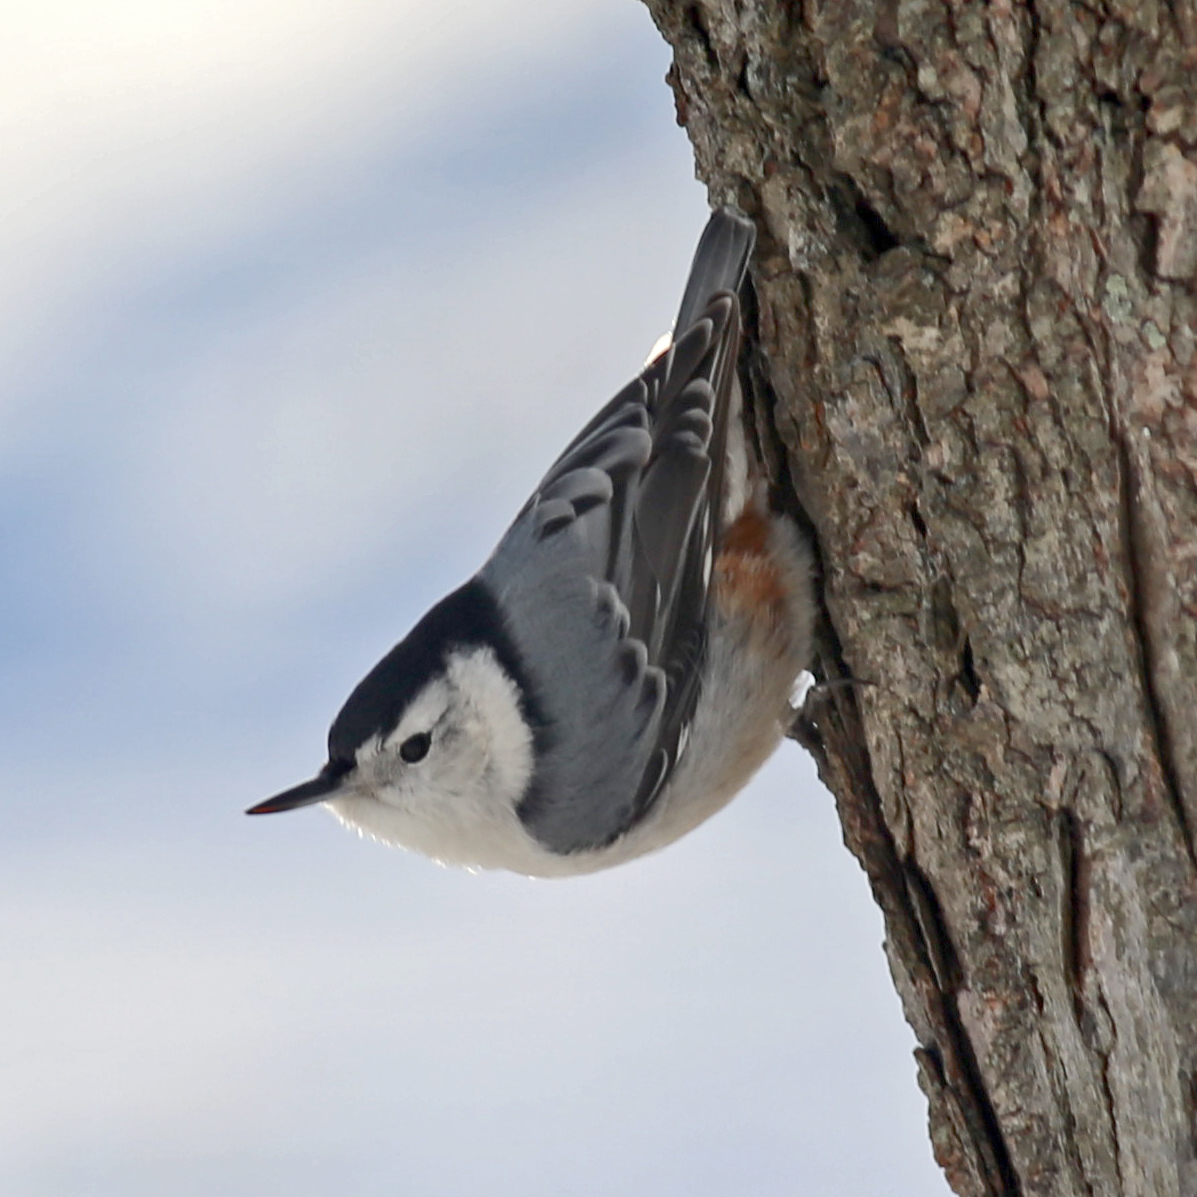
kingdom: Animalia
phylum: Chordata
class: Aves
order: Passeriformes
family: Sittidae
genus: Sitta
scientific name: Sitta carolinensis
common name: White-breasted nuthatch
